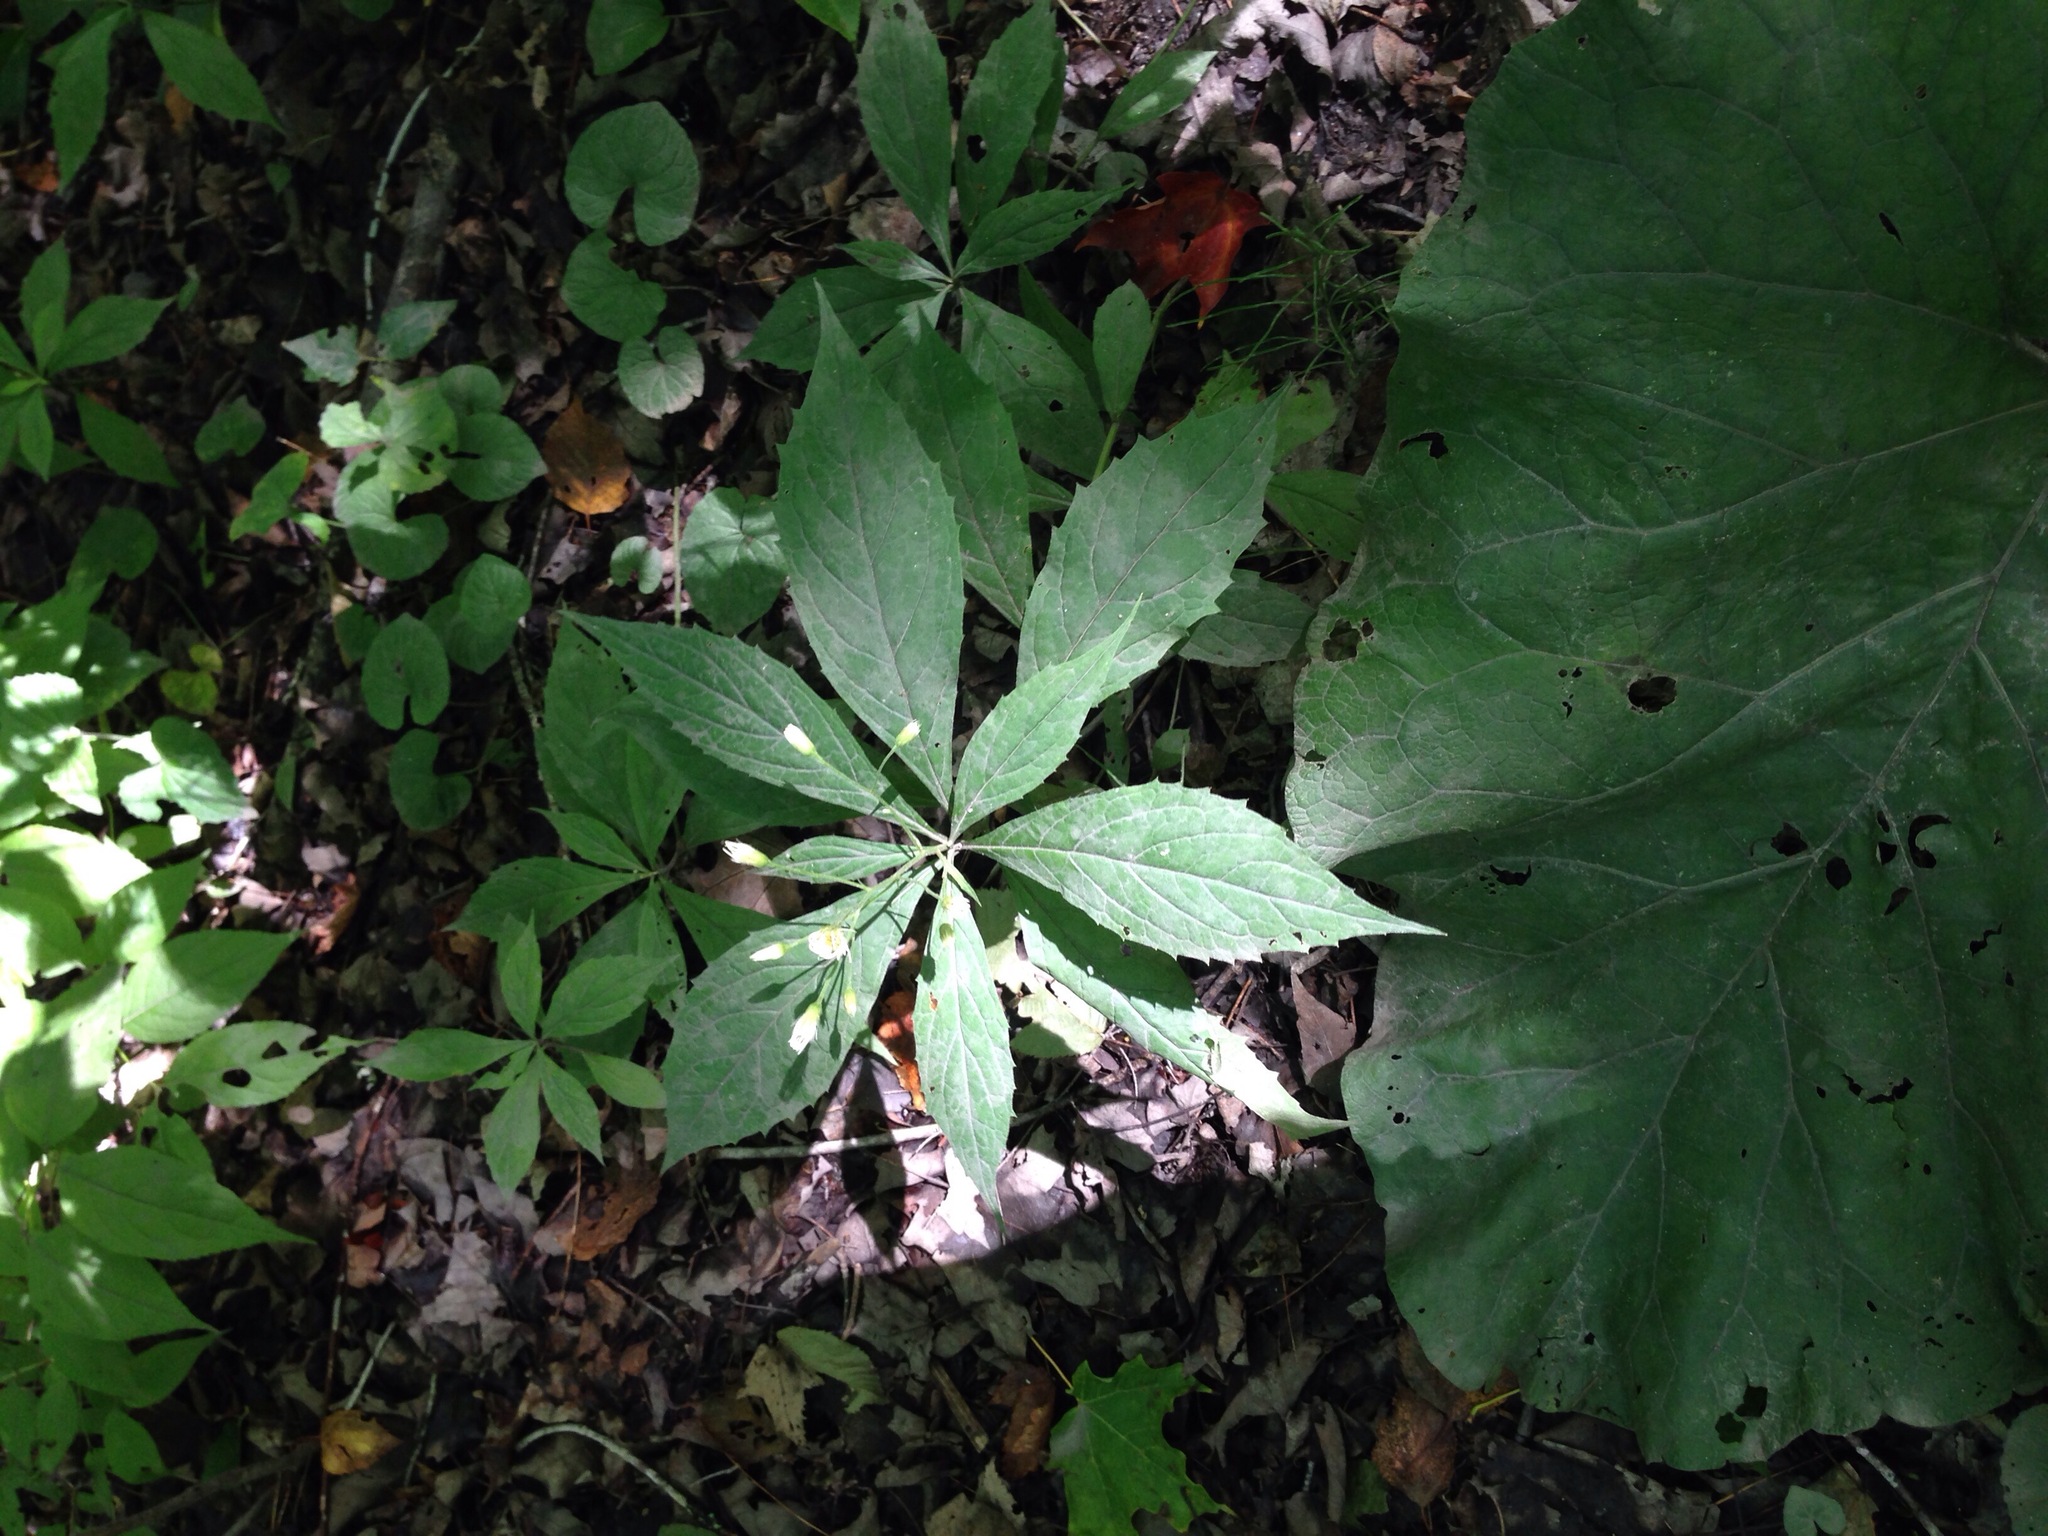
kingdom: Plantae
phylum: Tracheophyta
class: Magnoliopsida
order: Asterales
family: Asteraceae
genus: Oclemena
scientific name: Oclemena acuminata
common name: Mountain aster
